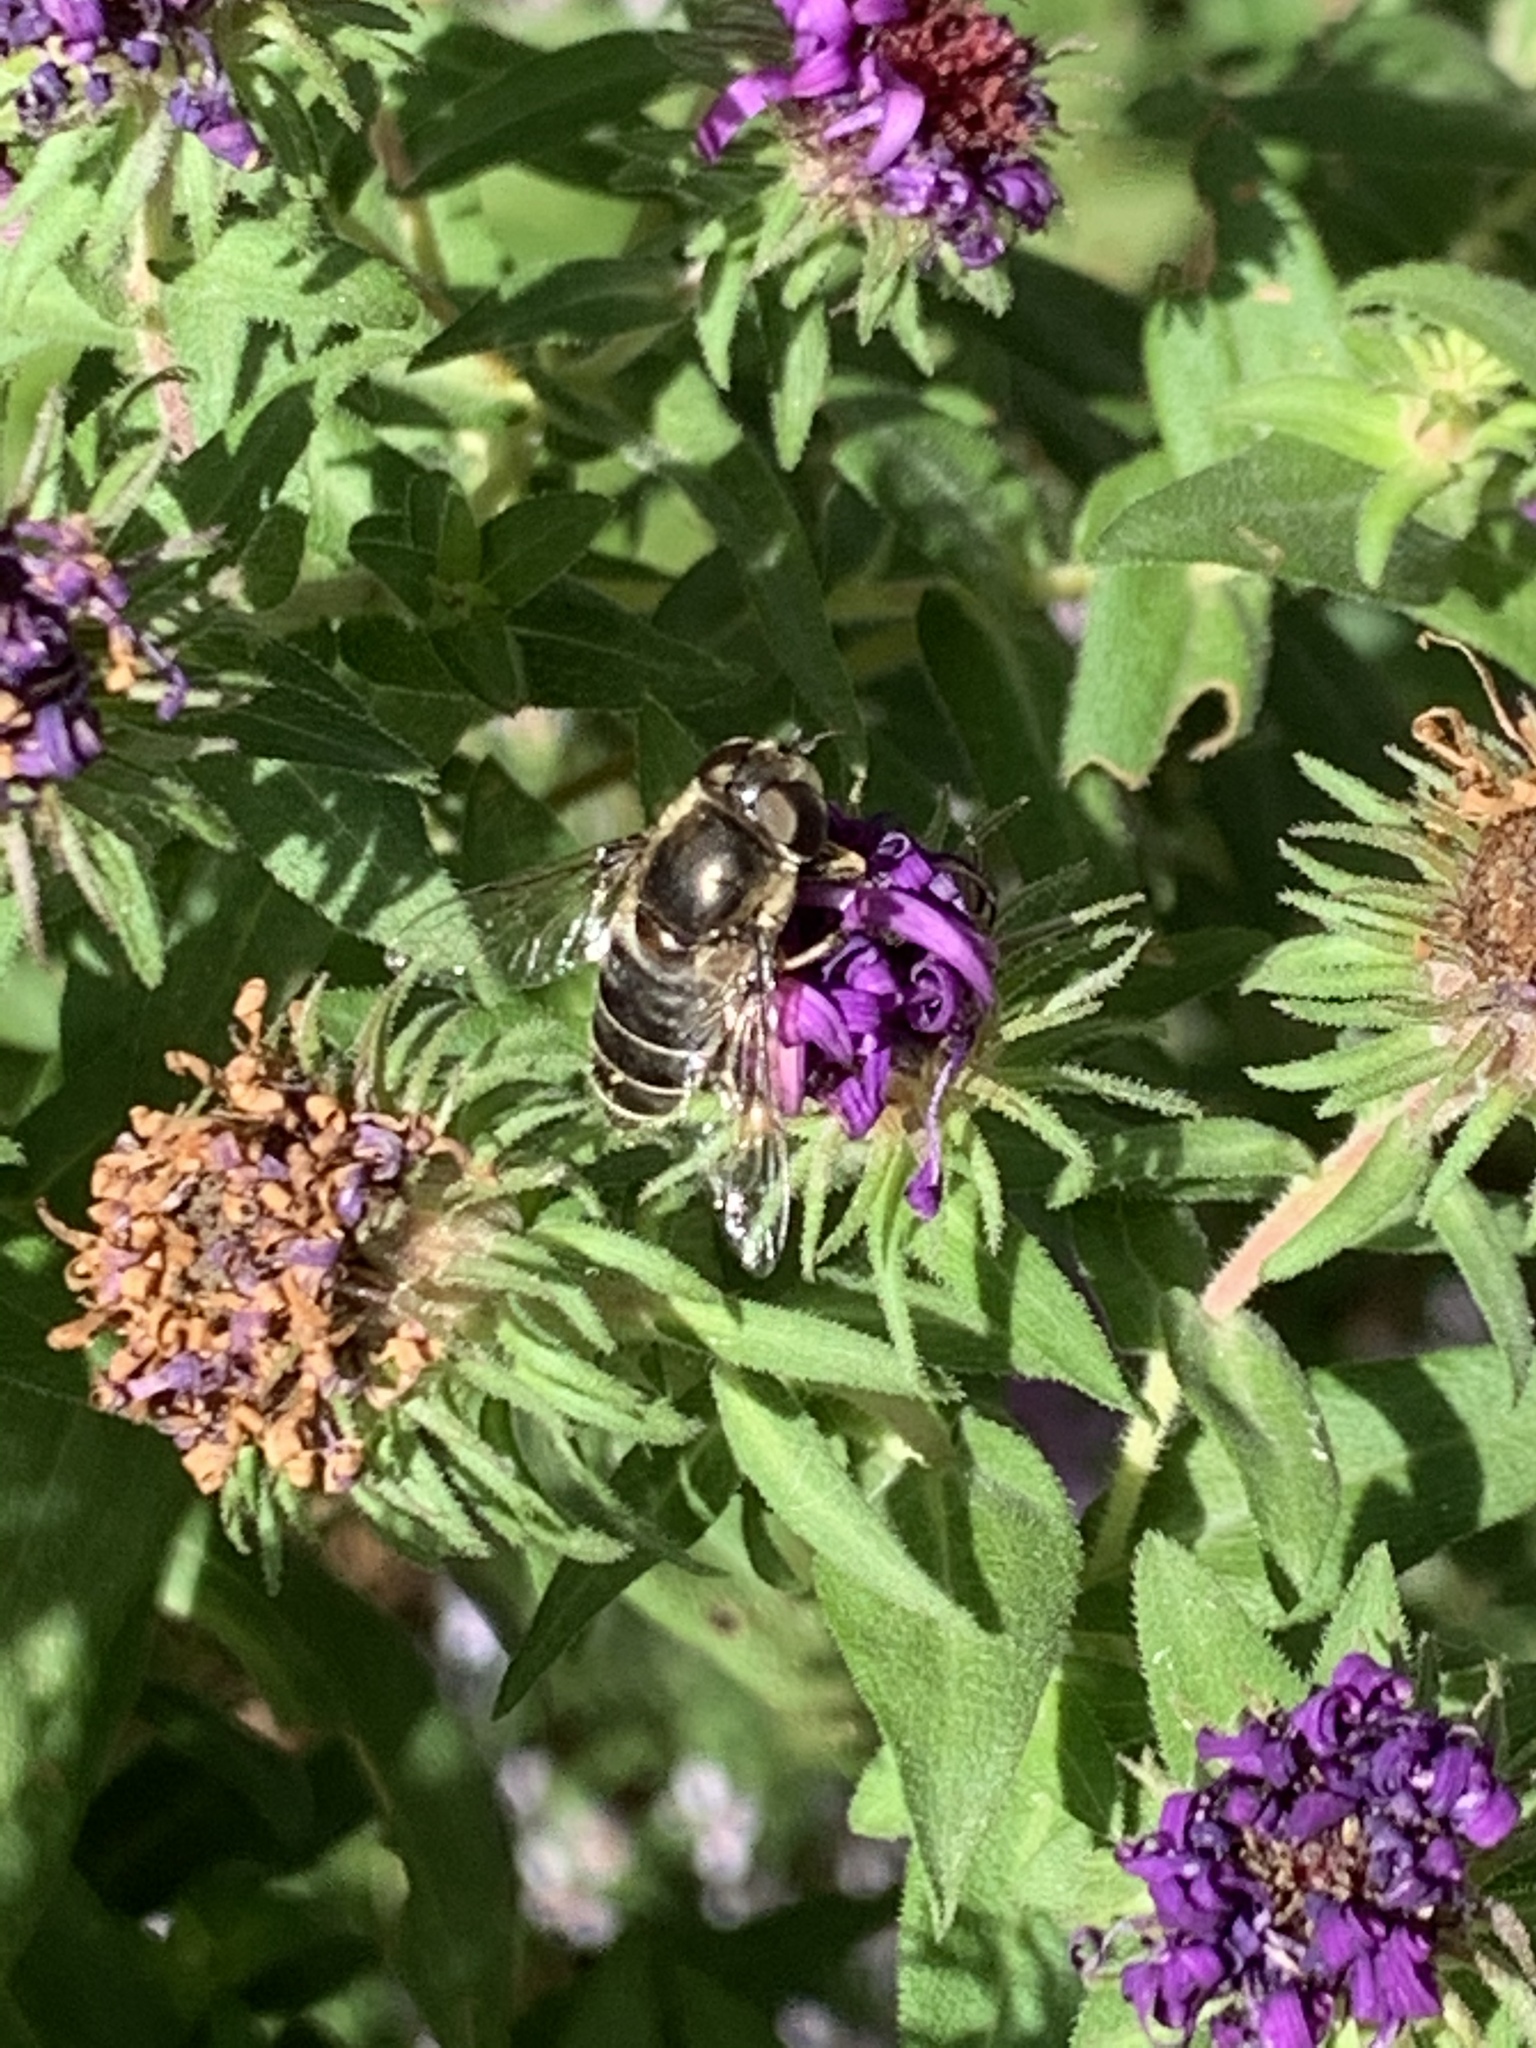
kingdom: Animalia
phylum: Arthropoda
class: Insecta
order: Diptera
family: Syrphidae
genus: Eristalis
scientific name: Eristalis dimidiata
